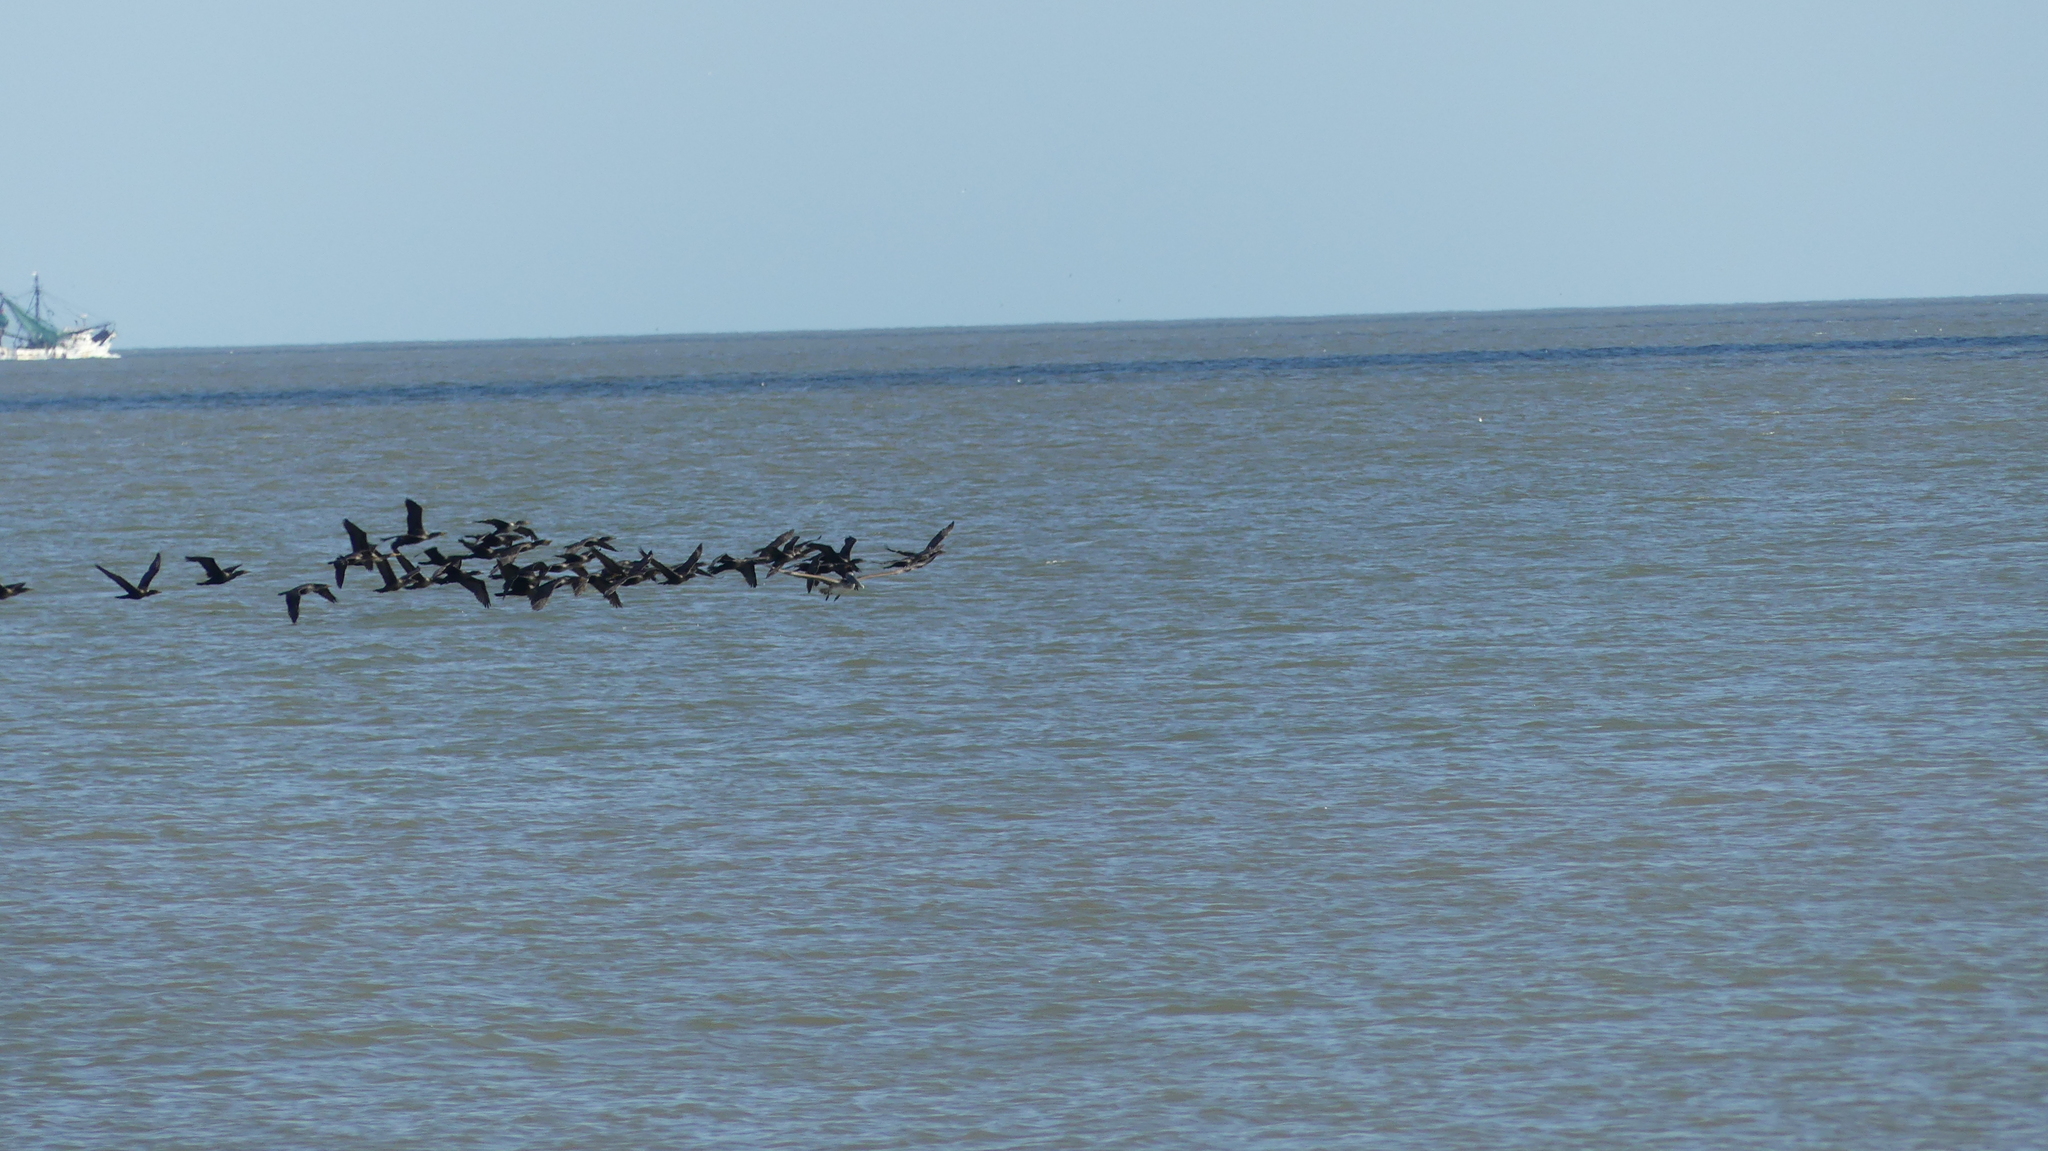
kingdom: Animalia
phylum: Chordata
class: Aves
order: Suliformes
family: Phalacrocoracidae
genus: Phalacrocorax
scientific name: Phalacrocorax auritus
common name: Double-crested cormorant
